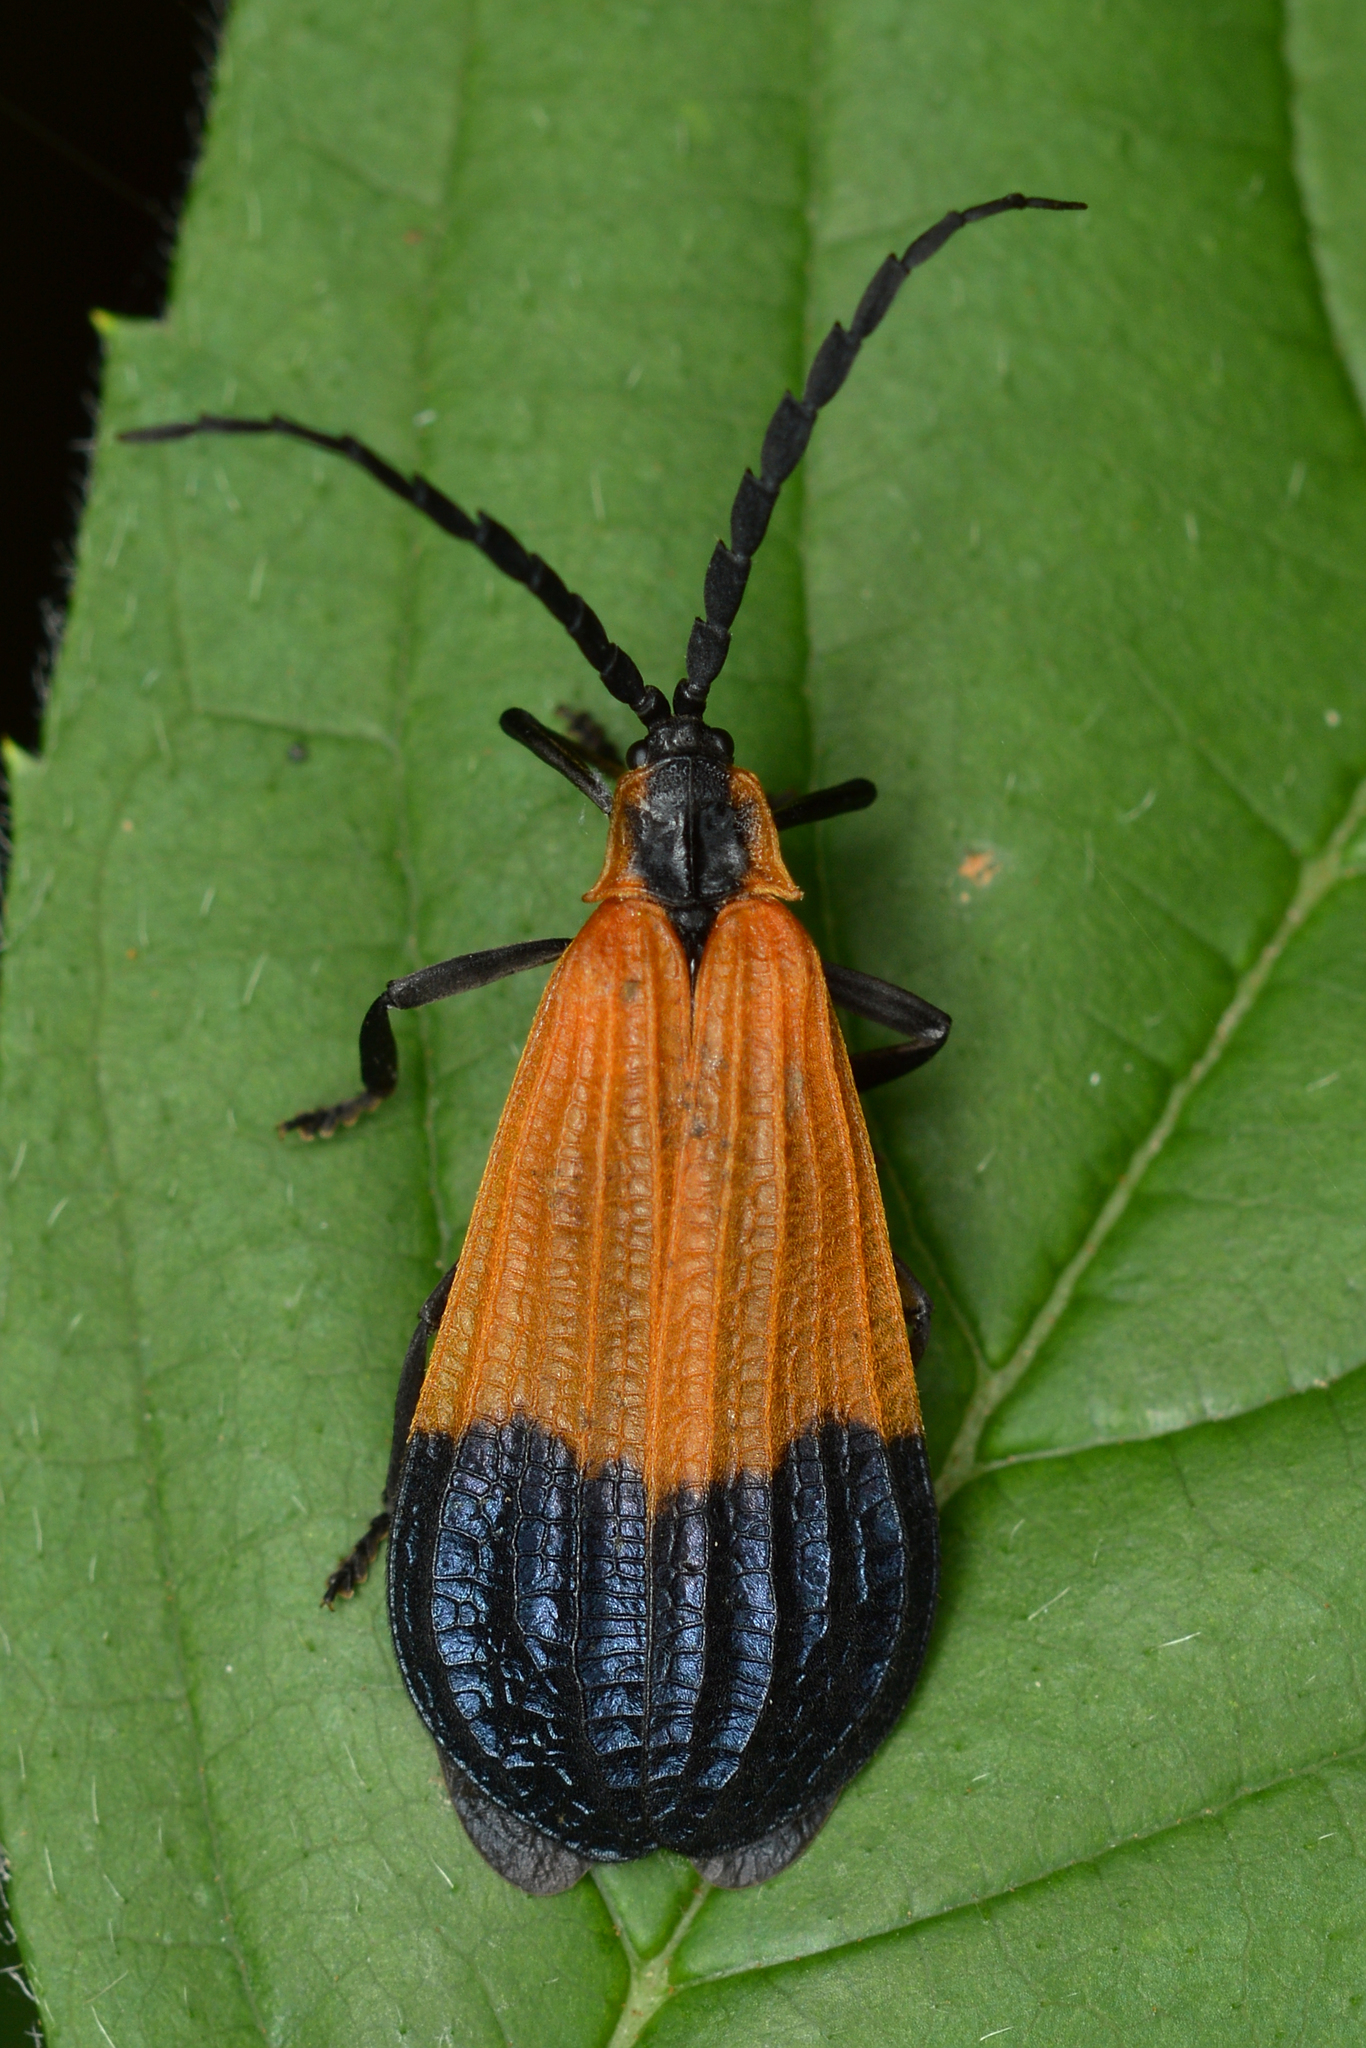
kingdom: Animalia
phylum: Arthropoda
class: Insecta
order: Coleoptera
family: Lycidae
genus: Calopteron
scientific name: Calopteron terminale
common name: End band net-winged beetle
